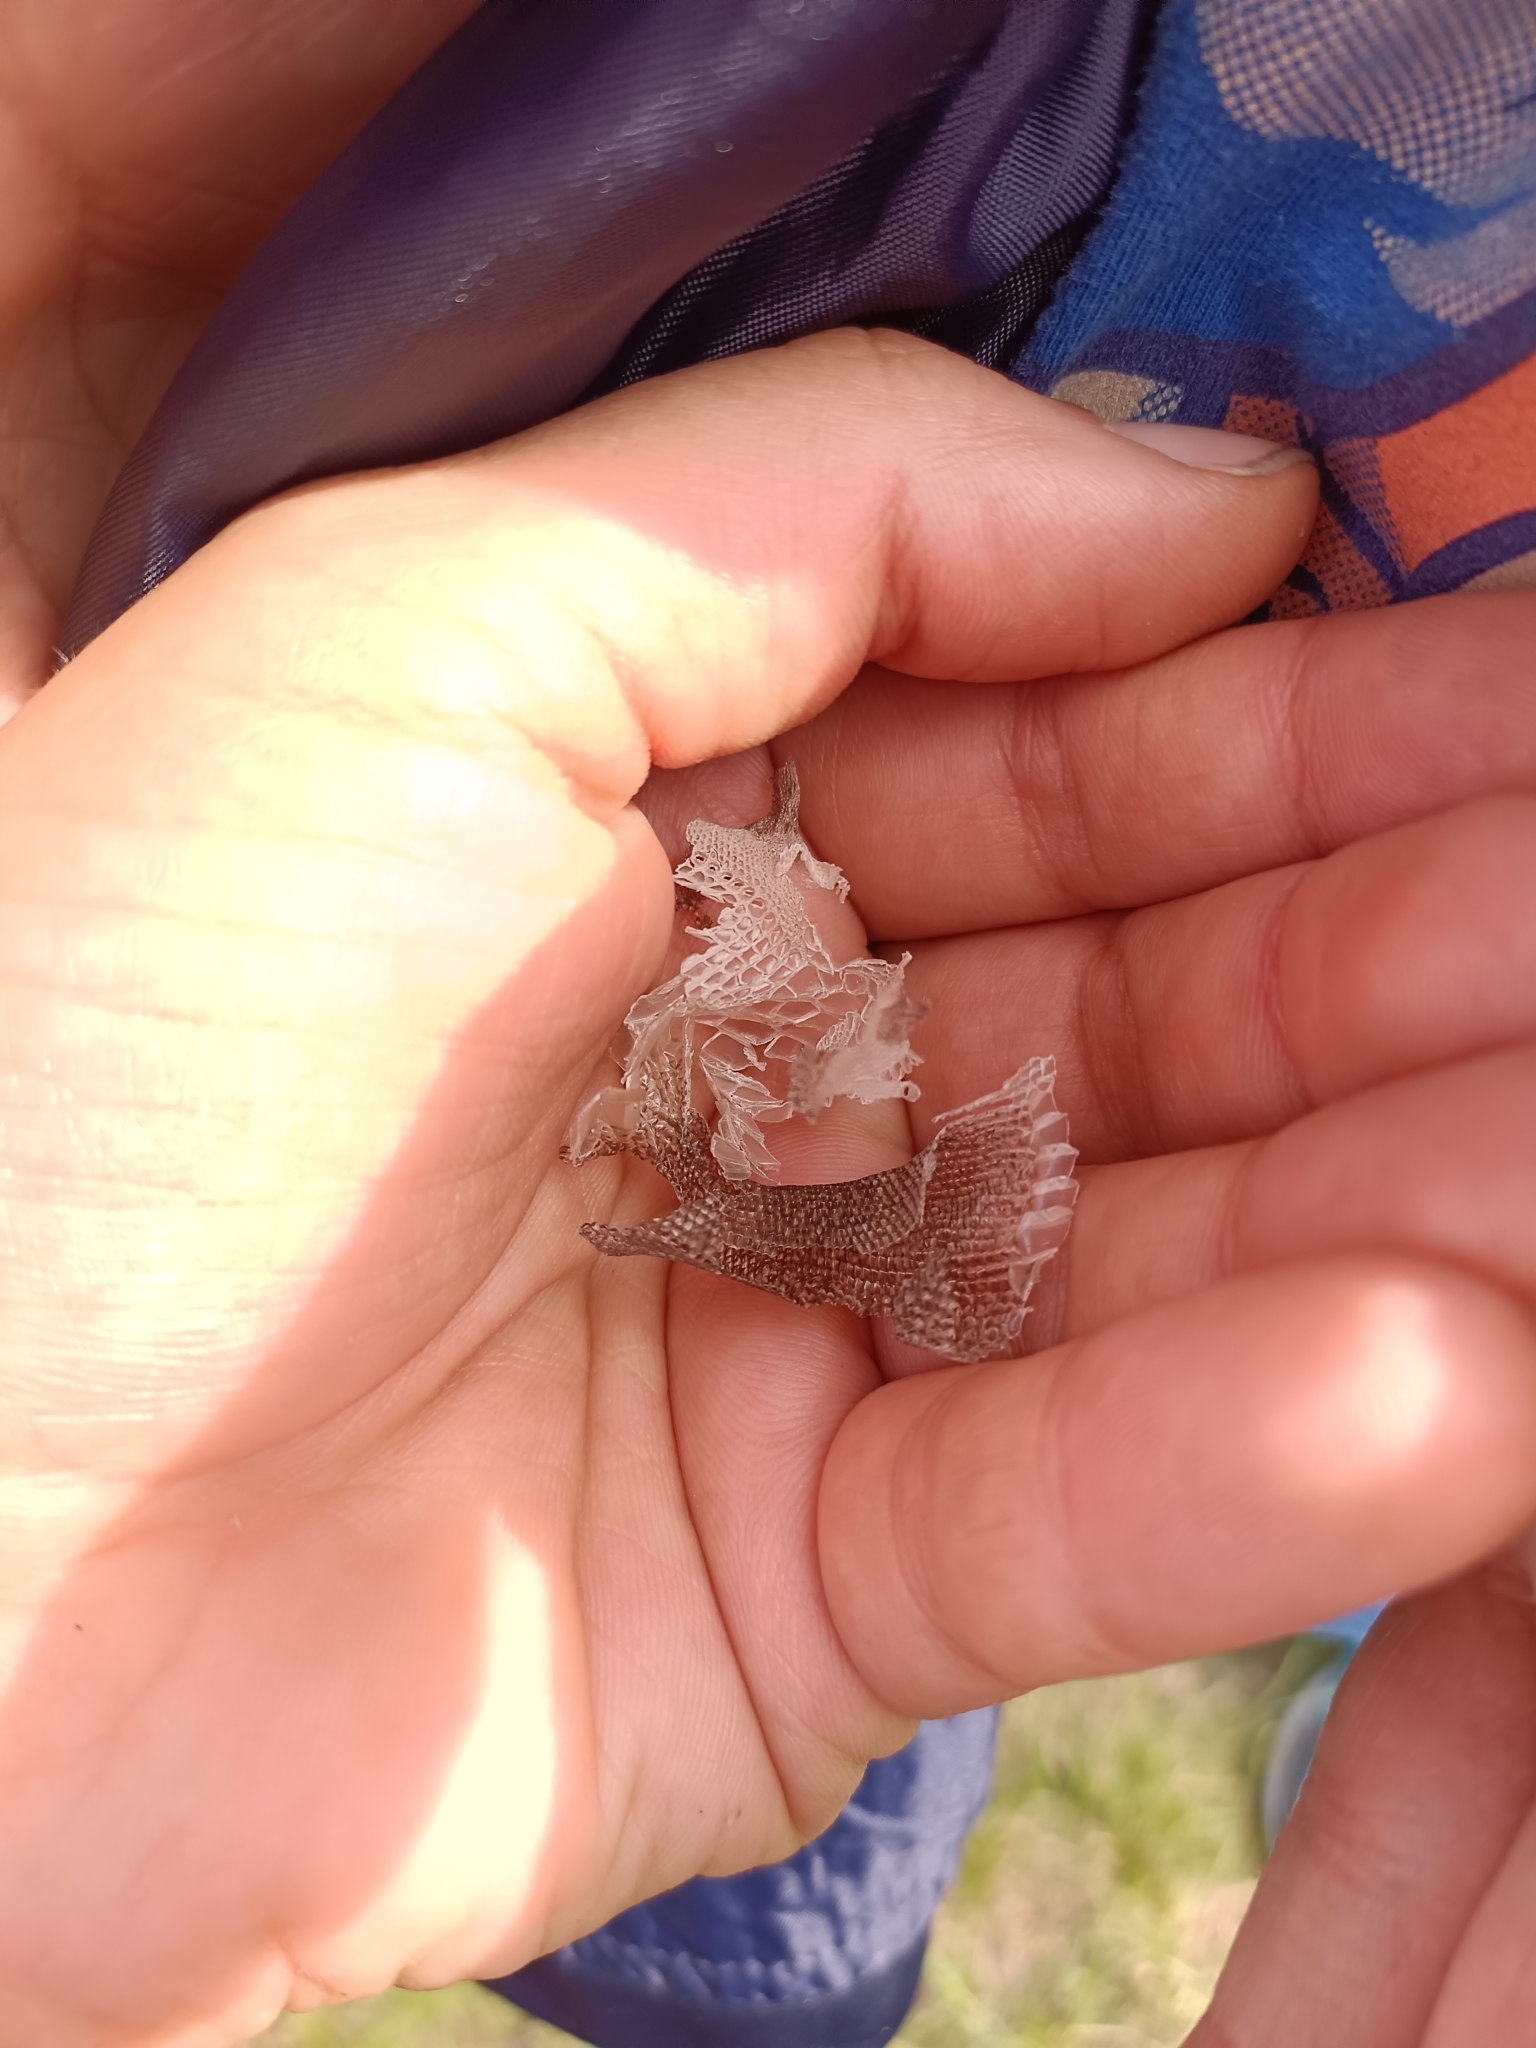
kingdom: Animalia
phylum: Chordata
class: Squamata
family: Lacertidae
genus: Lacerta
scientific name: Lacerta viridis
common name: European green lizard
